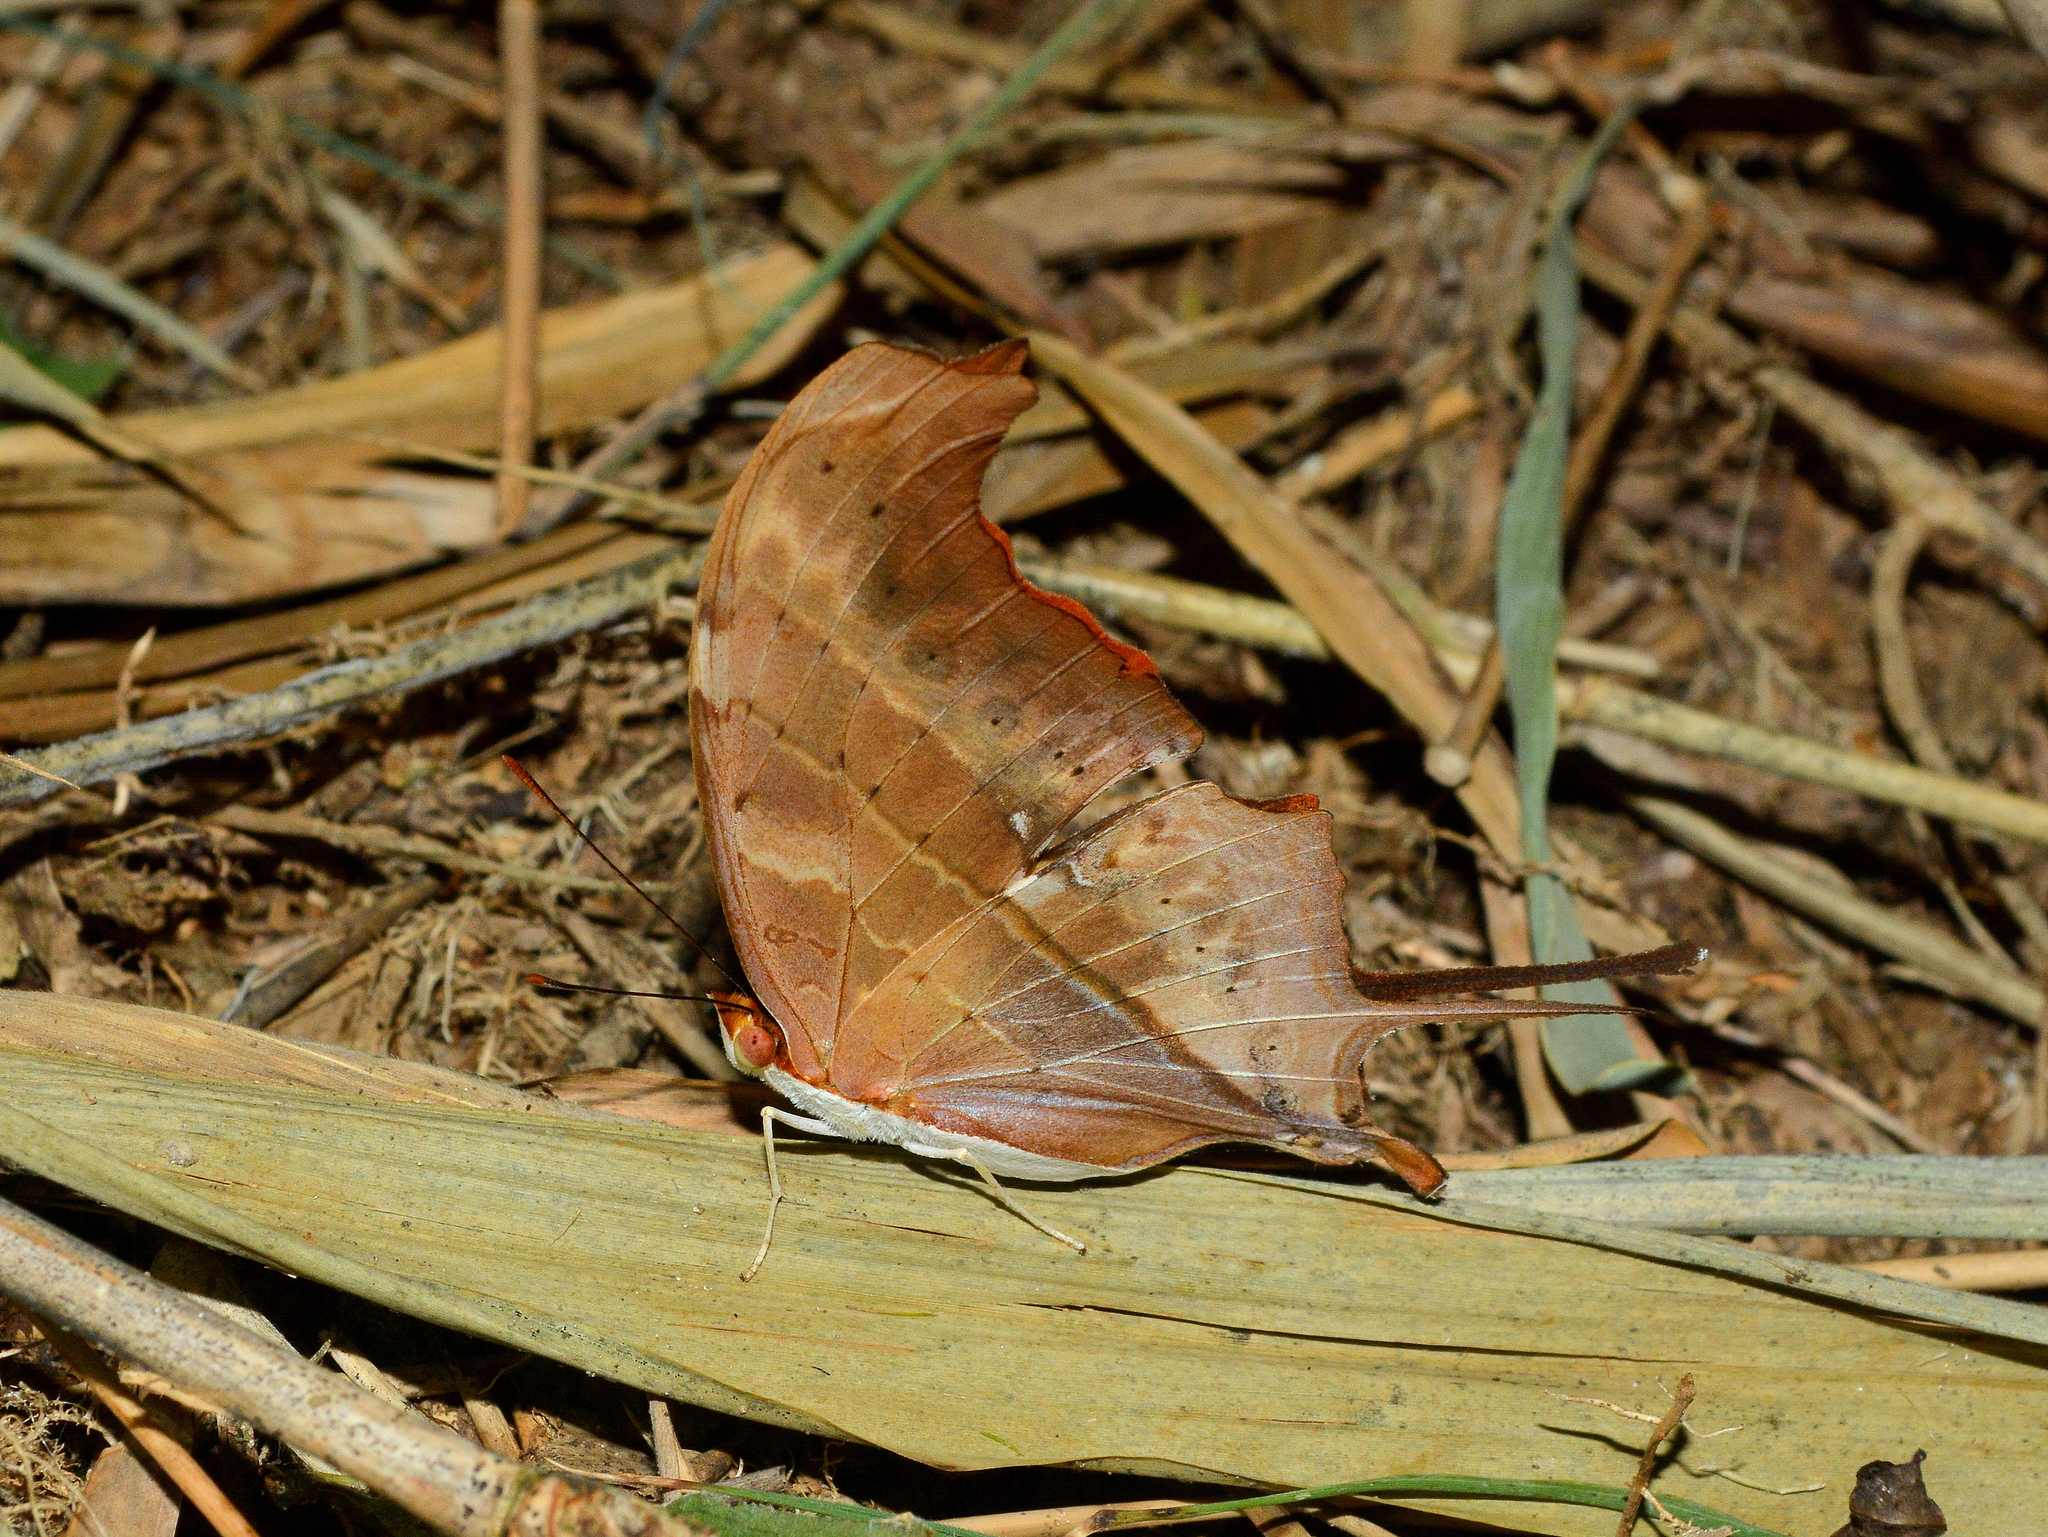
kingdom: Animalia
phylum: Arthropoda
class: Insecta
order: Lepidoptera
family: Nymphalidae
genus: Marpesia
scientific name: Marpesia petreus
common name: Red dagger wing
